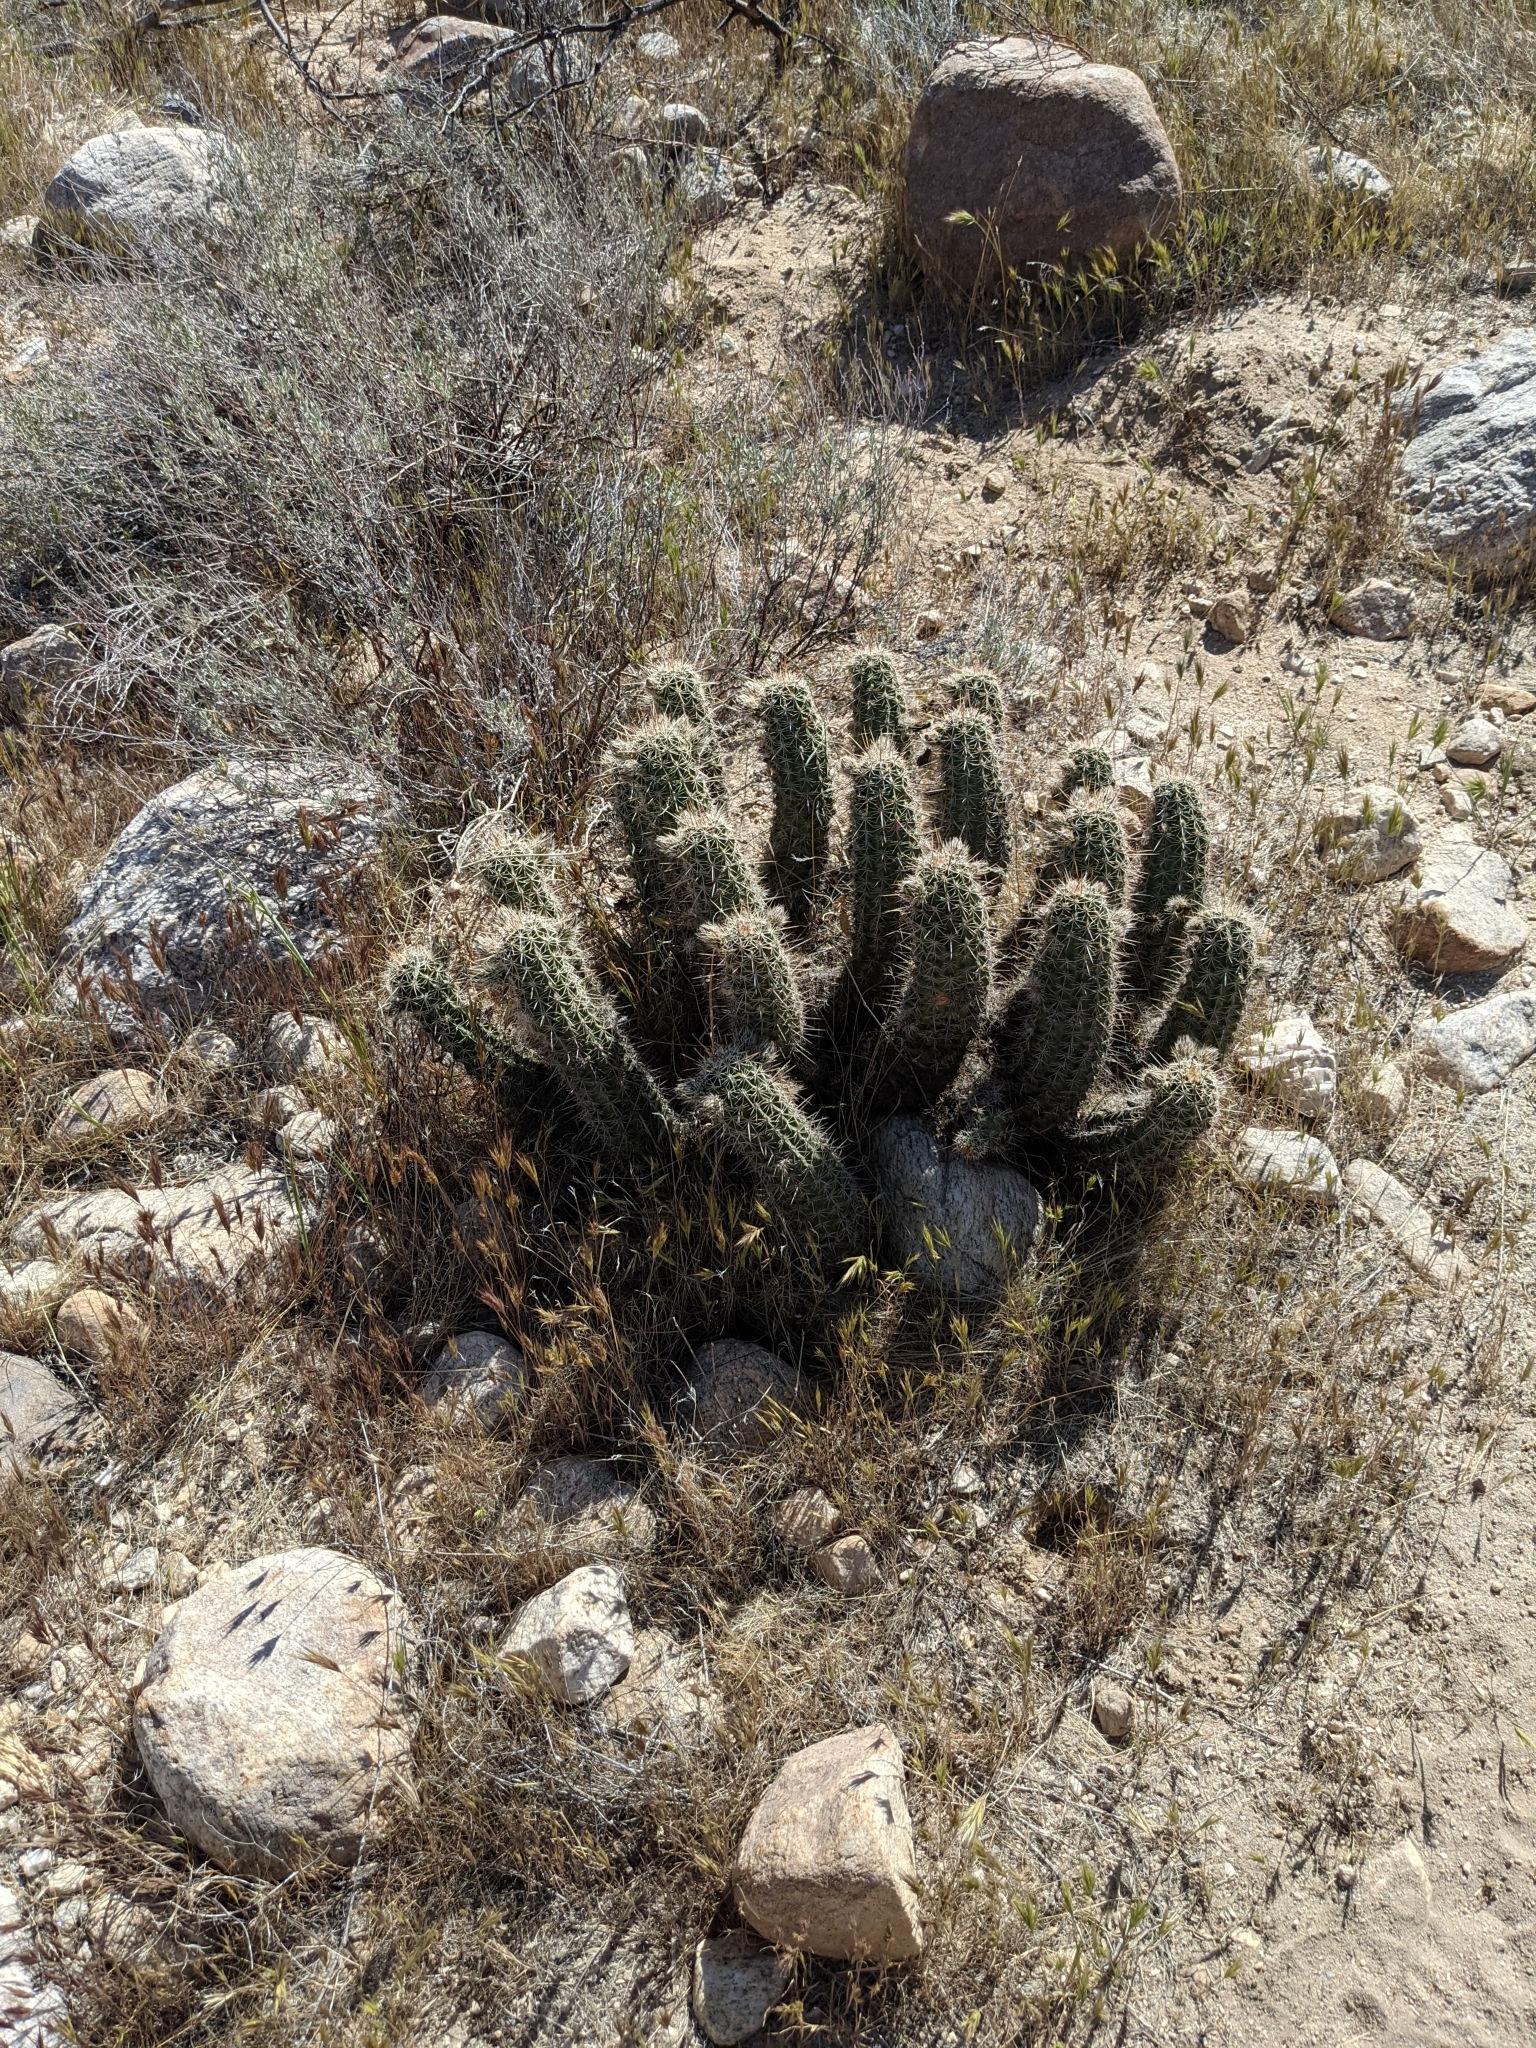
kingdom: Plantae
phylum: Tracheophyta
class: Magnoliopsida
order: Caryophyllales
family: Cactaceae
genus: Echinocereus
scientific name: Echinocereus fasciculatus
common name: Bundle hedgehog
